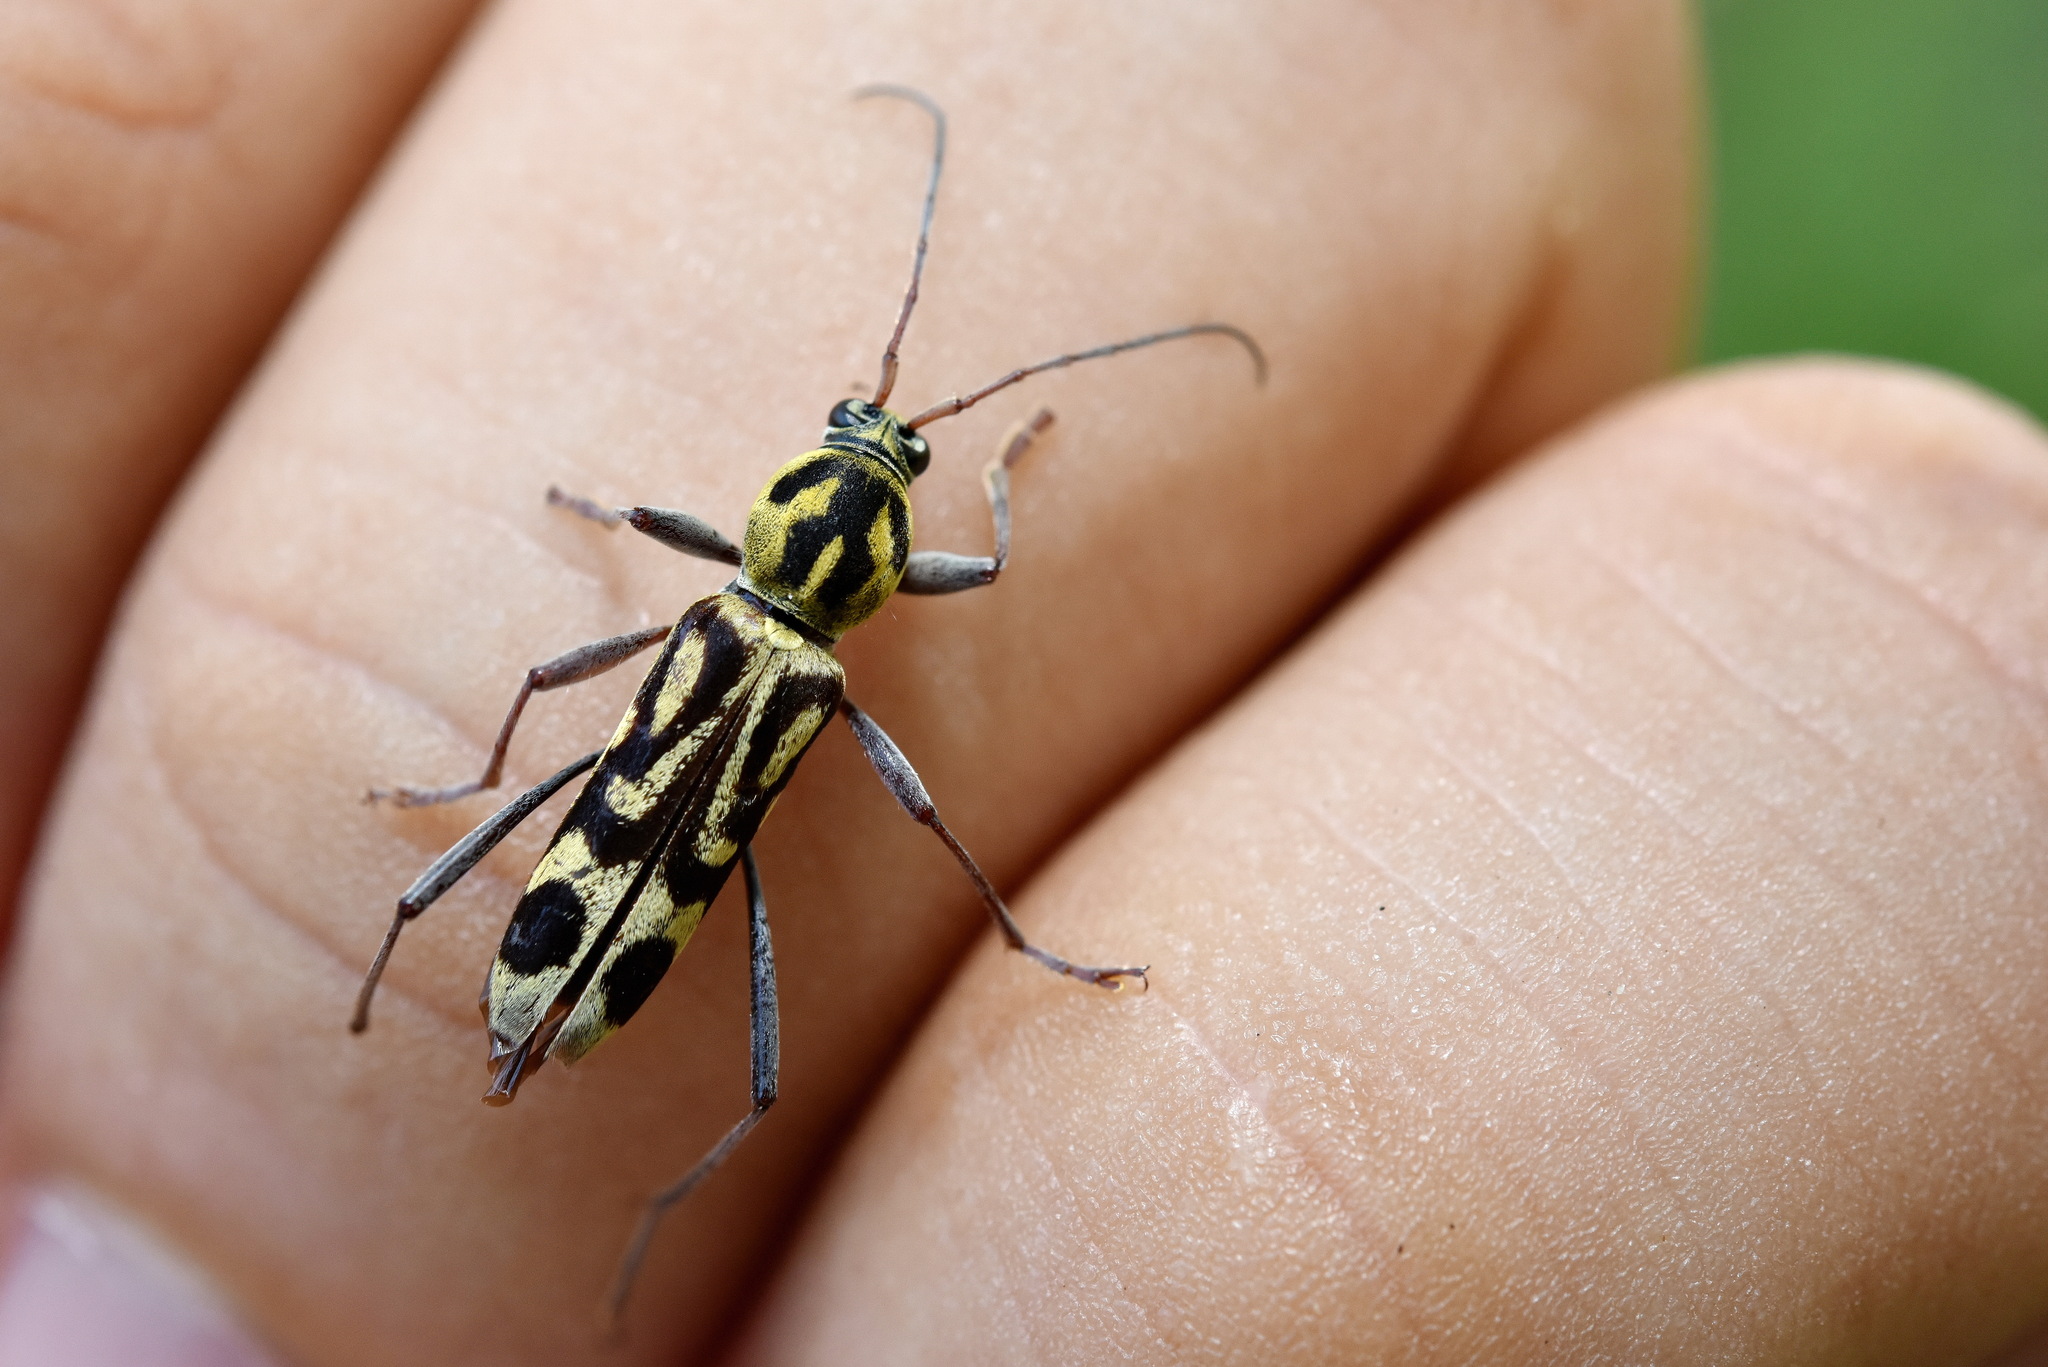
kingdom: Animalia
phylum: Arthropoda
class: Insecta
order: Coleoptera
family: Cerambycidae
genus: Chlorophorus
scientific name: Chlorophorus annularis
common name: Bamboo longhorn beetle
